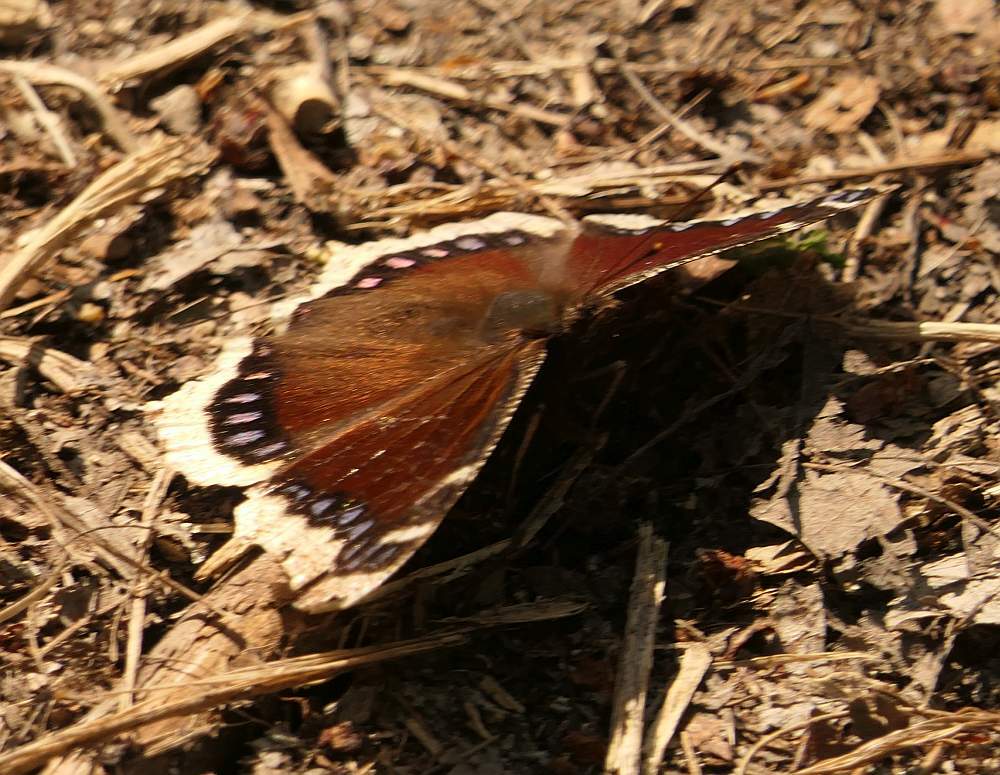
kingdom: Animalia
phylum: Arthropoda
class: Insecta
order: Lepidoptera
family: Nymphalidae
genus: Nymphalis
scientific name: Nymphalis antiopa
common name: Camberwell beauty
